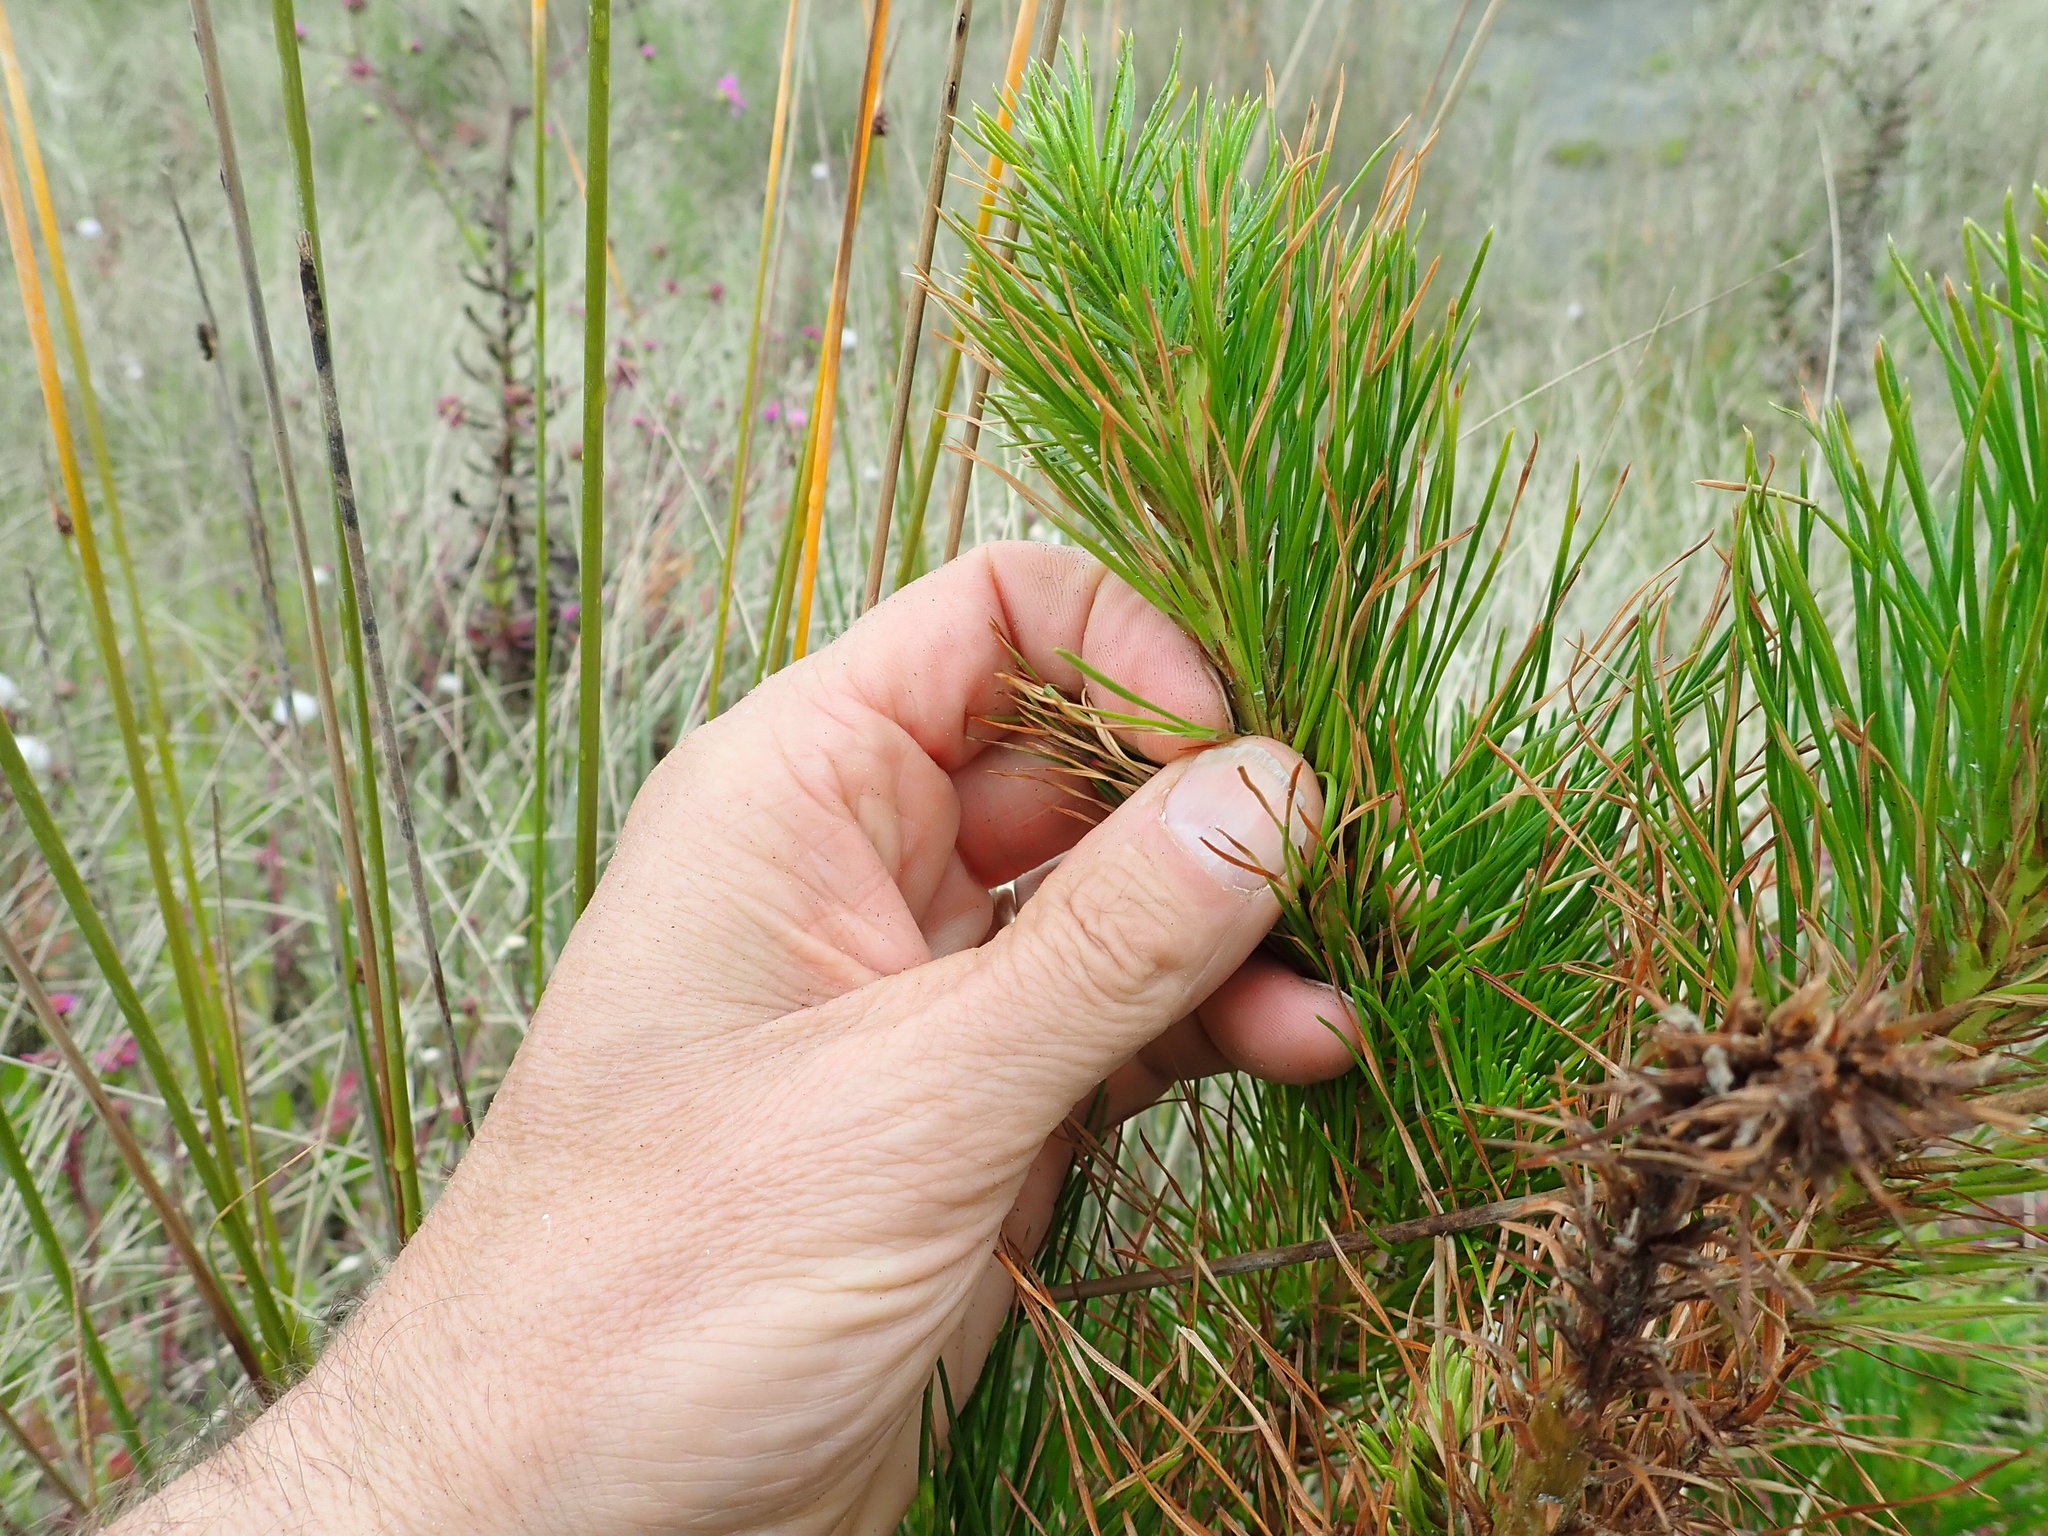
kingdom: Plantae
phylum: Tracheophyta
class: Pinopsida
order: Pinales
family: Pinaceae
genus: Pinus
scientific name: Pinus radiata
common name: Monterey pine
